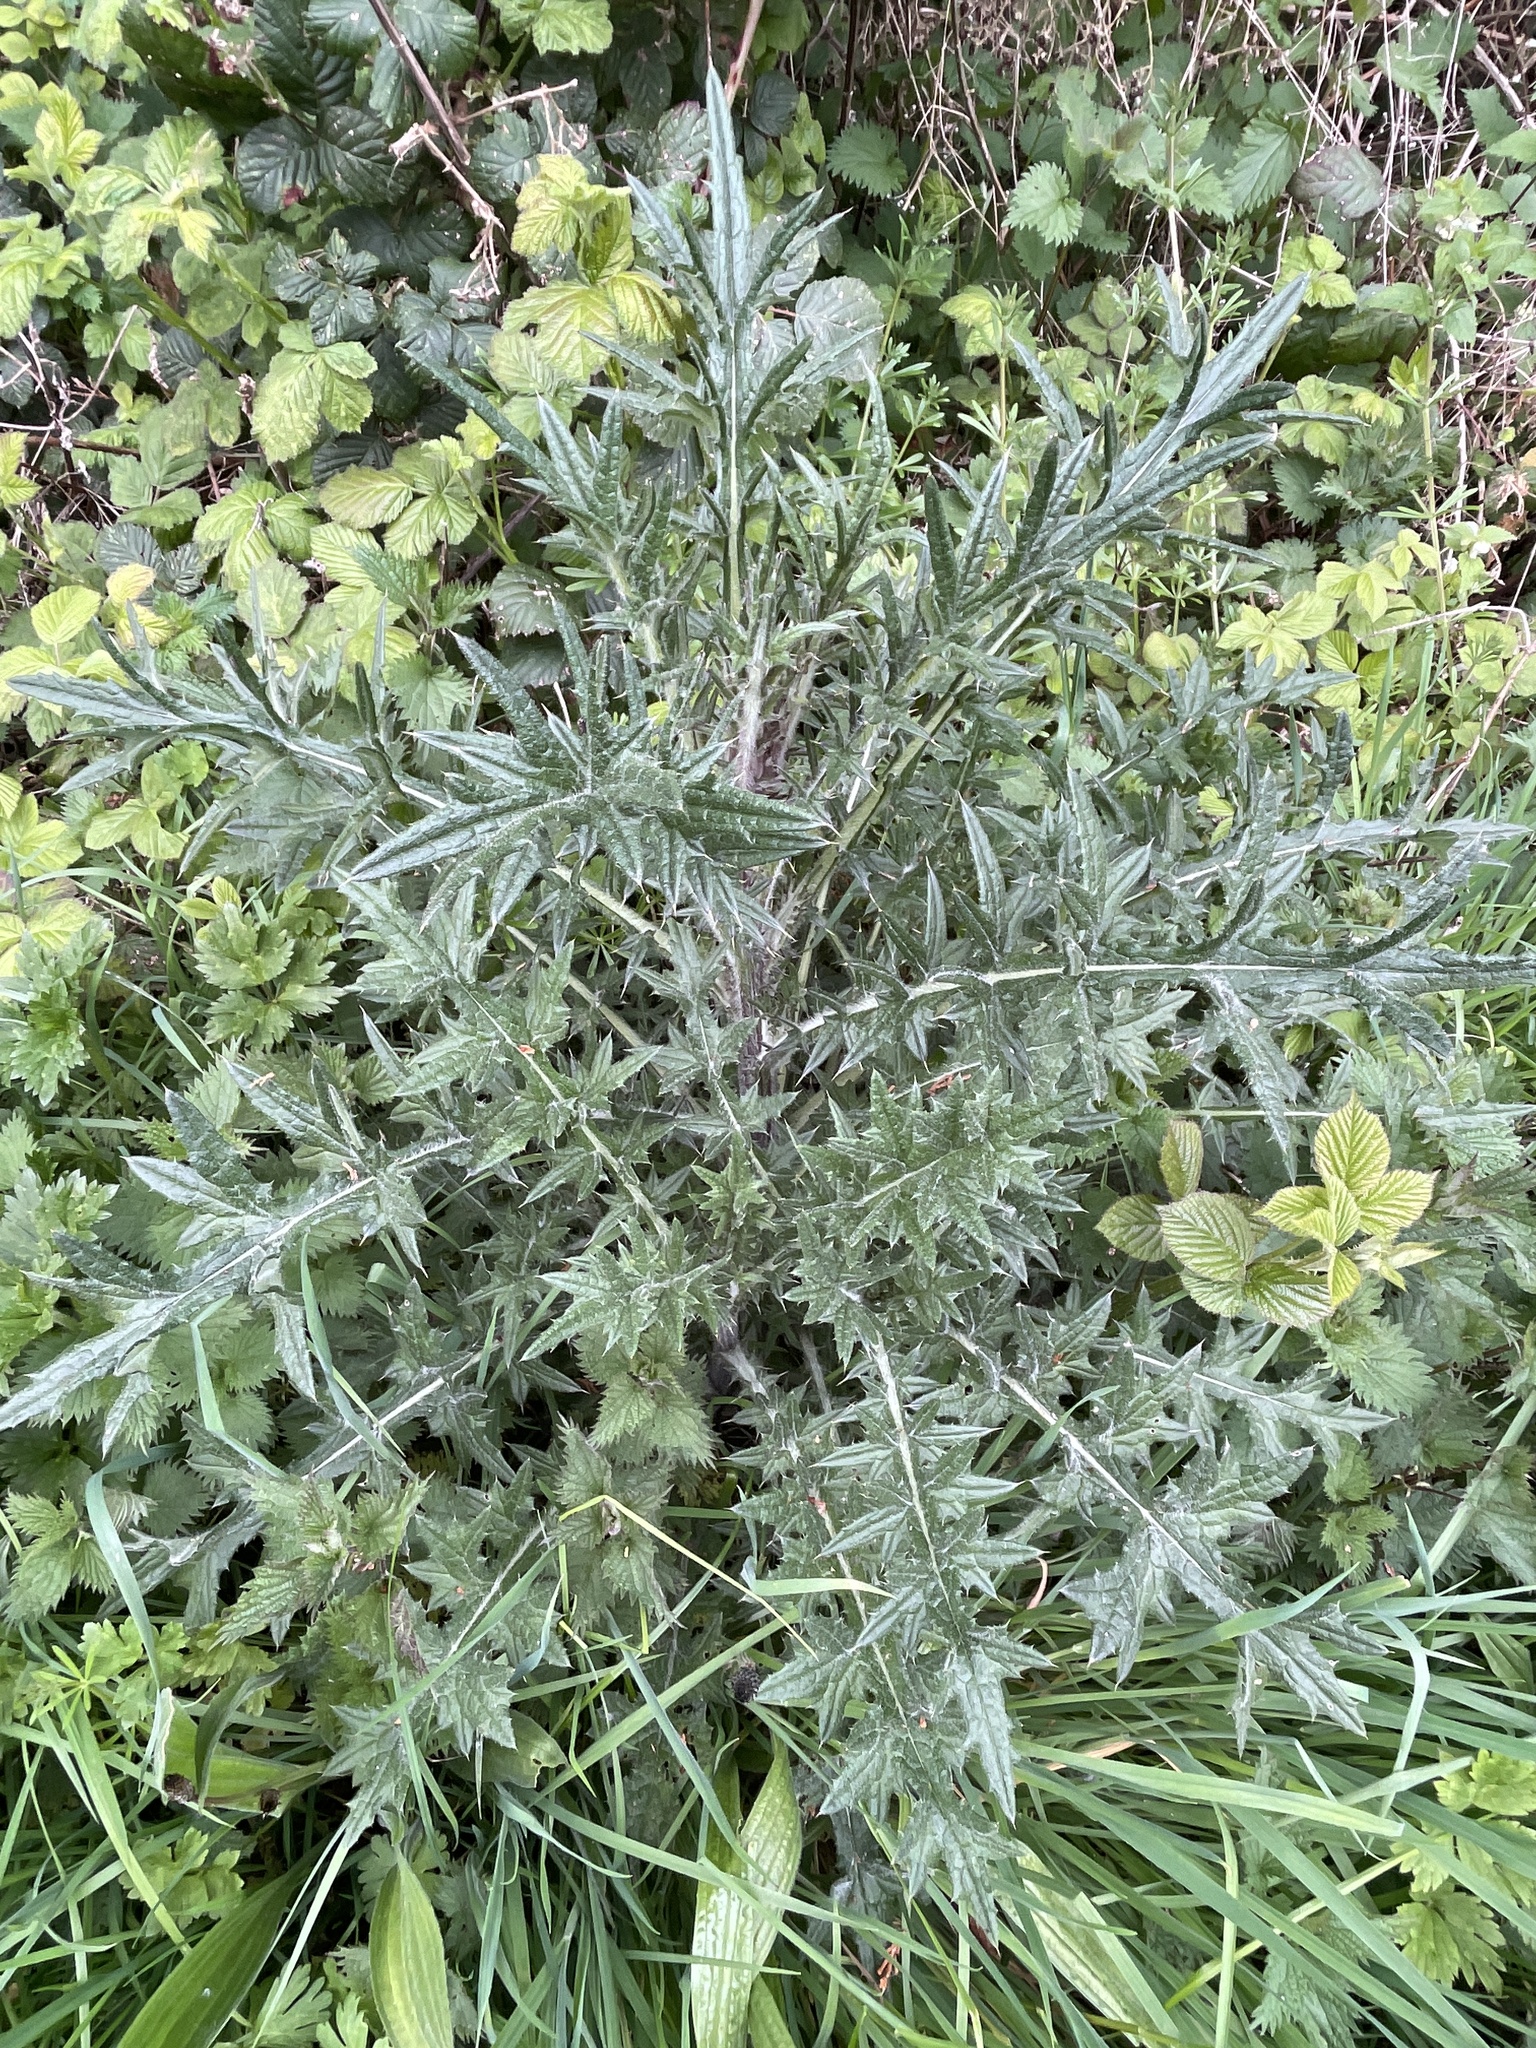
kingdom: Plantae
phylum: Tracheophyta
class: Magnoliopsida
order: Asterales
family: Asteraceae
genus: Cirsium
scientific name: Cirsium vulgare
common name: Bull thistle
